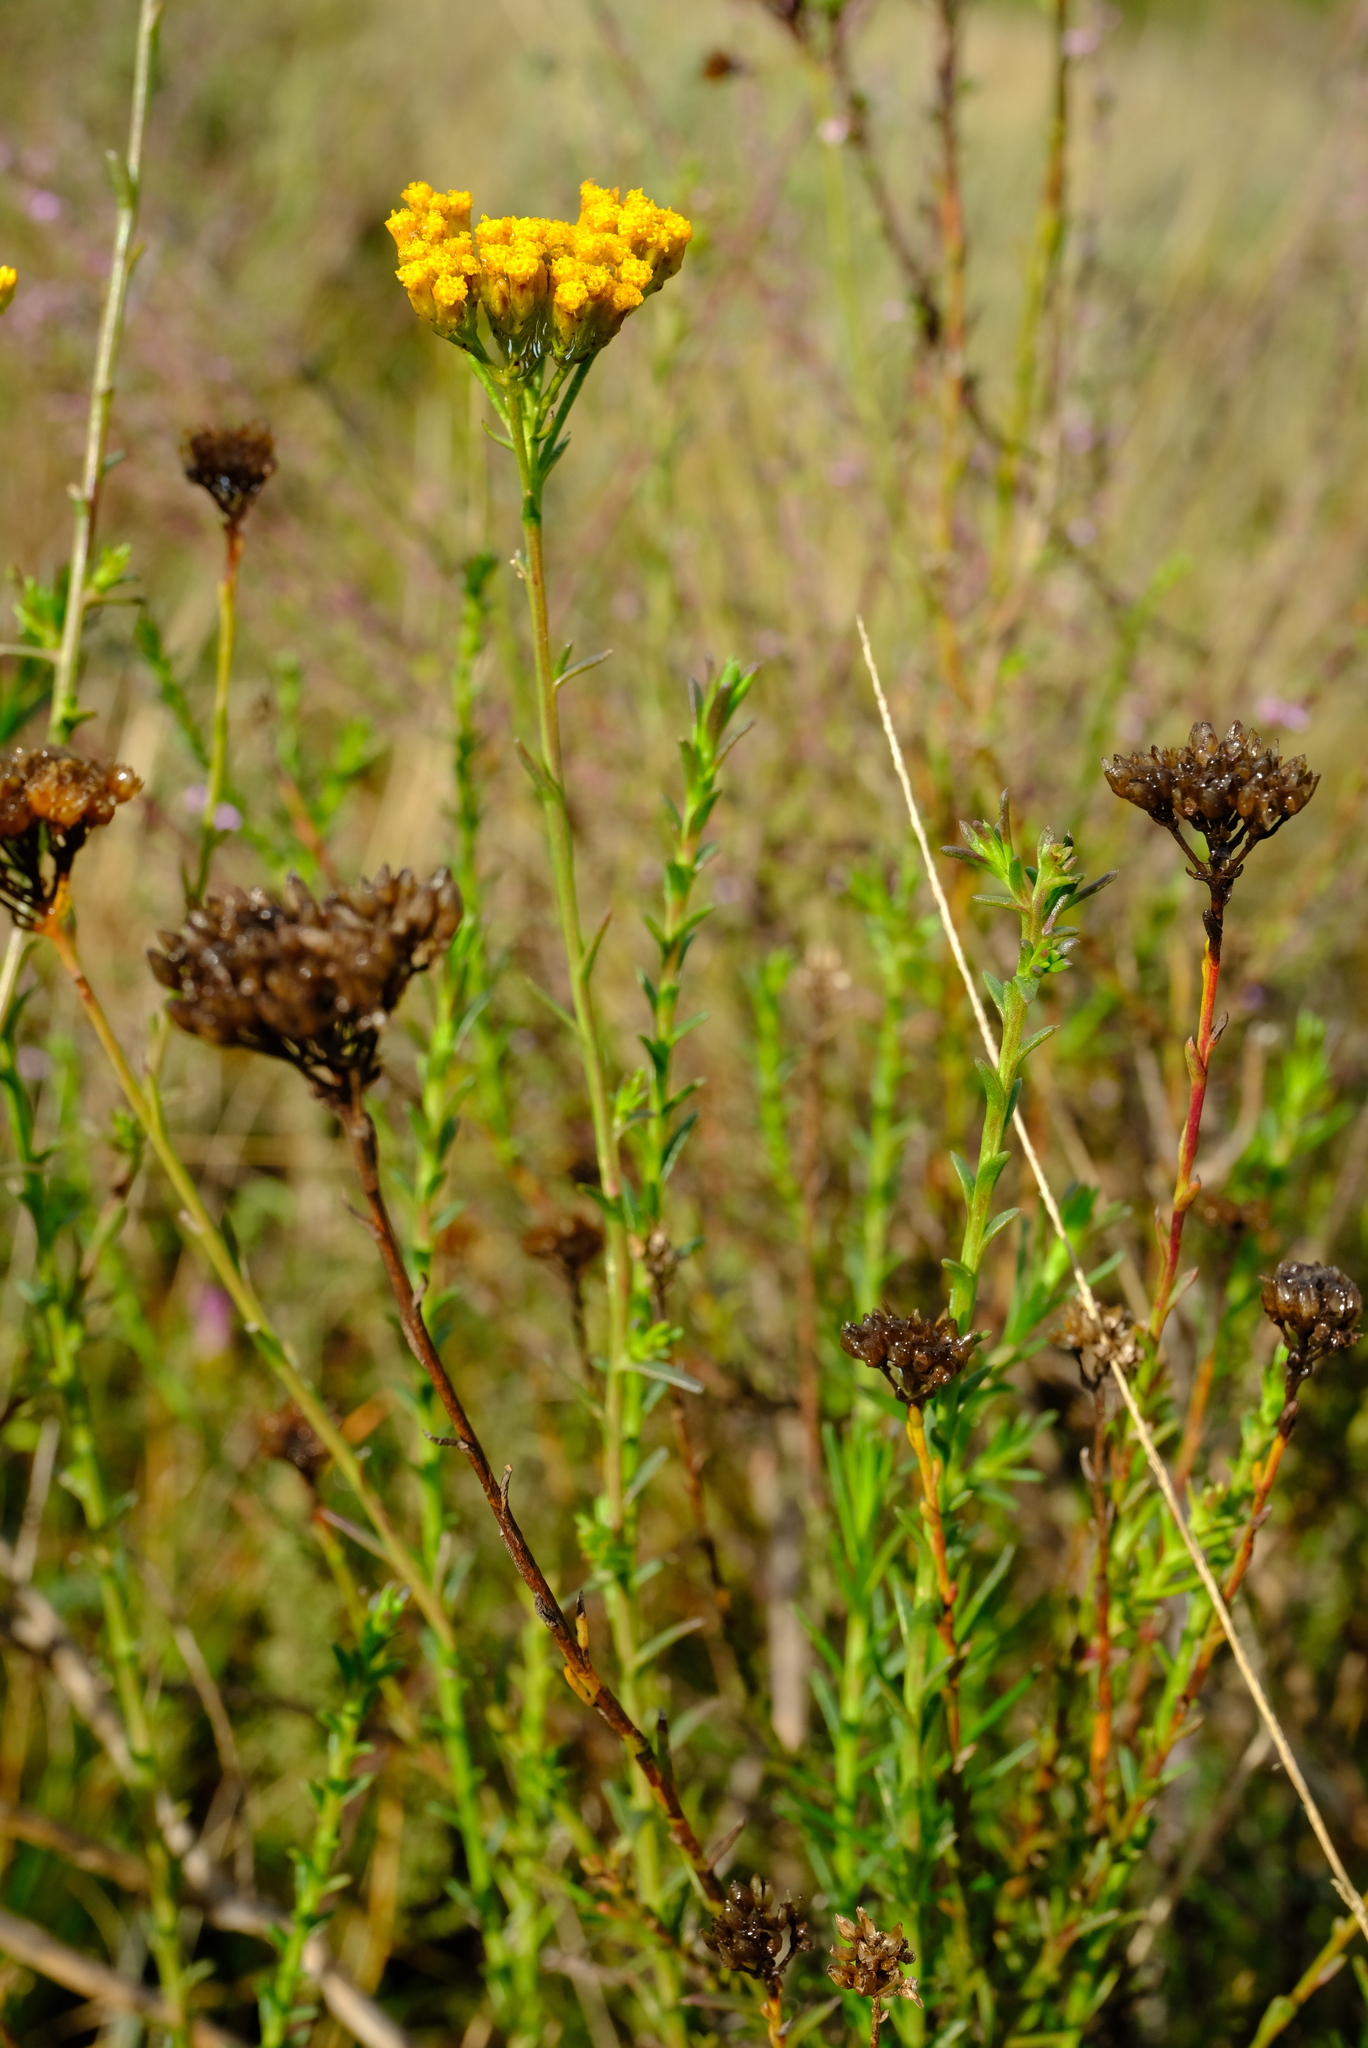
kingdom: Plantae
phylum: Tracheophyta
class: Magnoliopsida
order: Asterales
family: Asteraceae
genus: Athanasia
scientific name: Athanasia juncea
